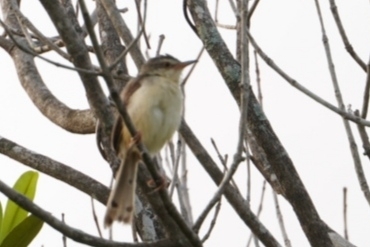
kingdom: Animalia
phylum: Chordata
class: Aves
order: Passeriformes
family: Cisticolidae
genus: Prinia
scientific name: Prinia inornata
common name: Plain prinia
